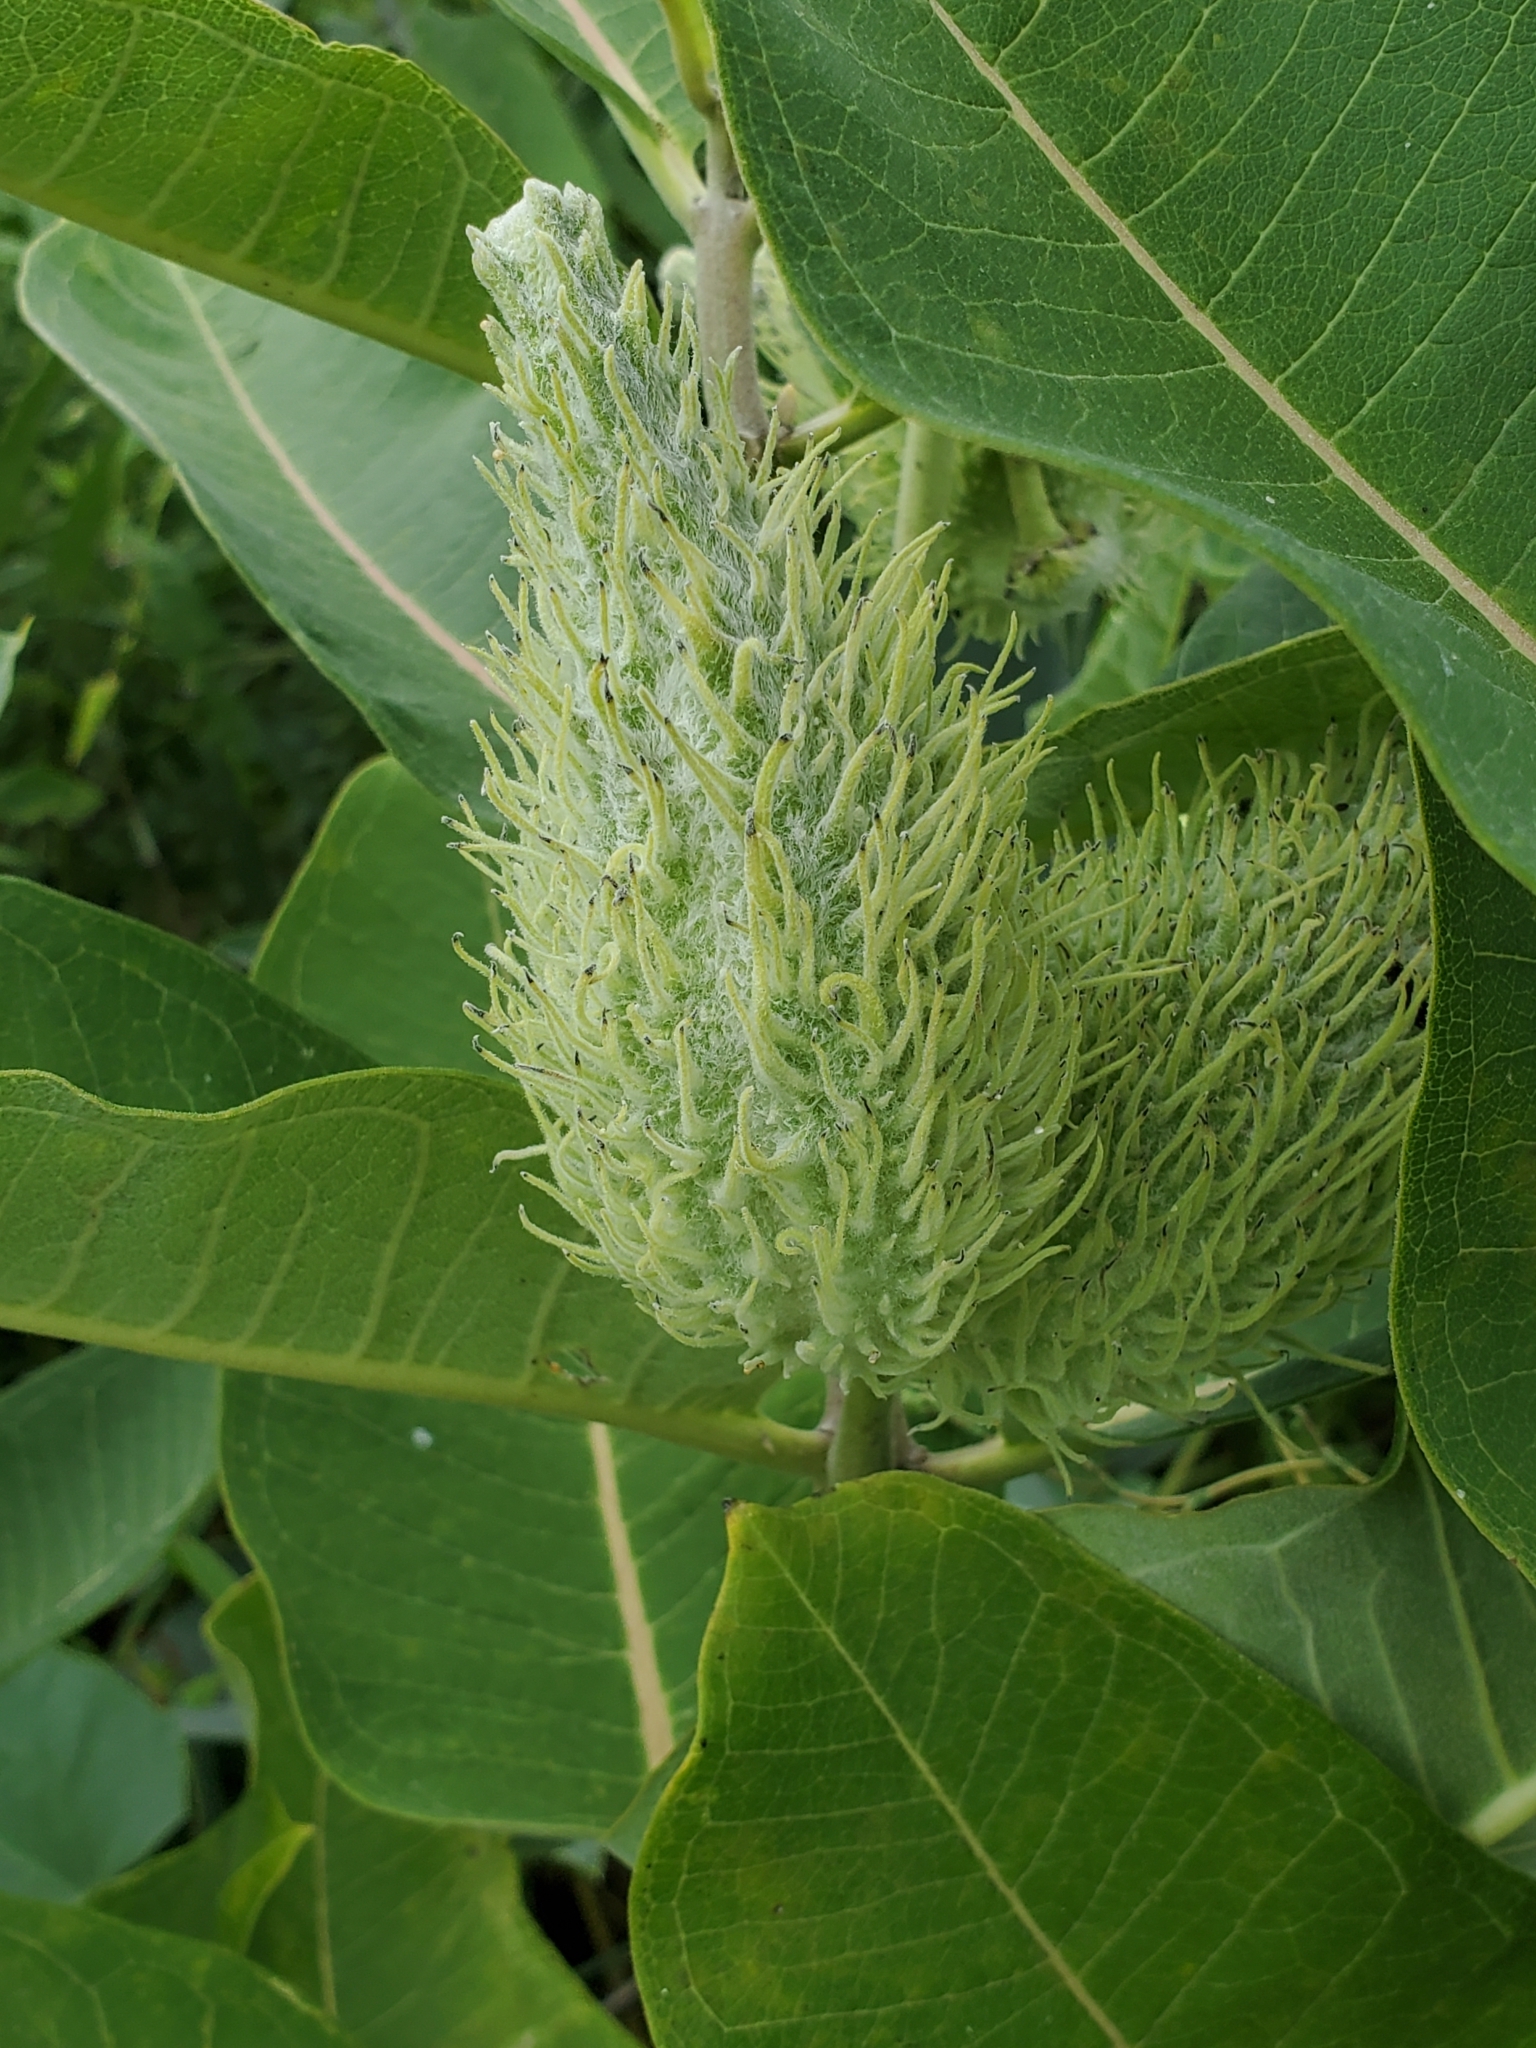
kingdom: Plantae
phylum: Tracheophyta
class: Magnoliopsida
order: Gentianales
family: Apocynaceae
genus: Asclepias
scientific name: Asclepias syriaca
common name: Common milkweed
